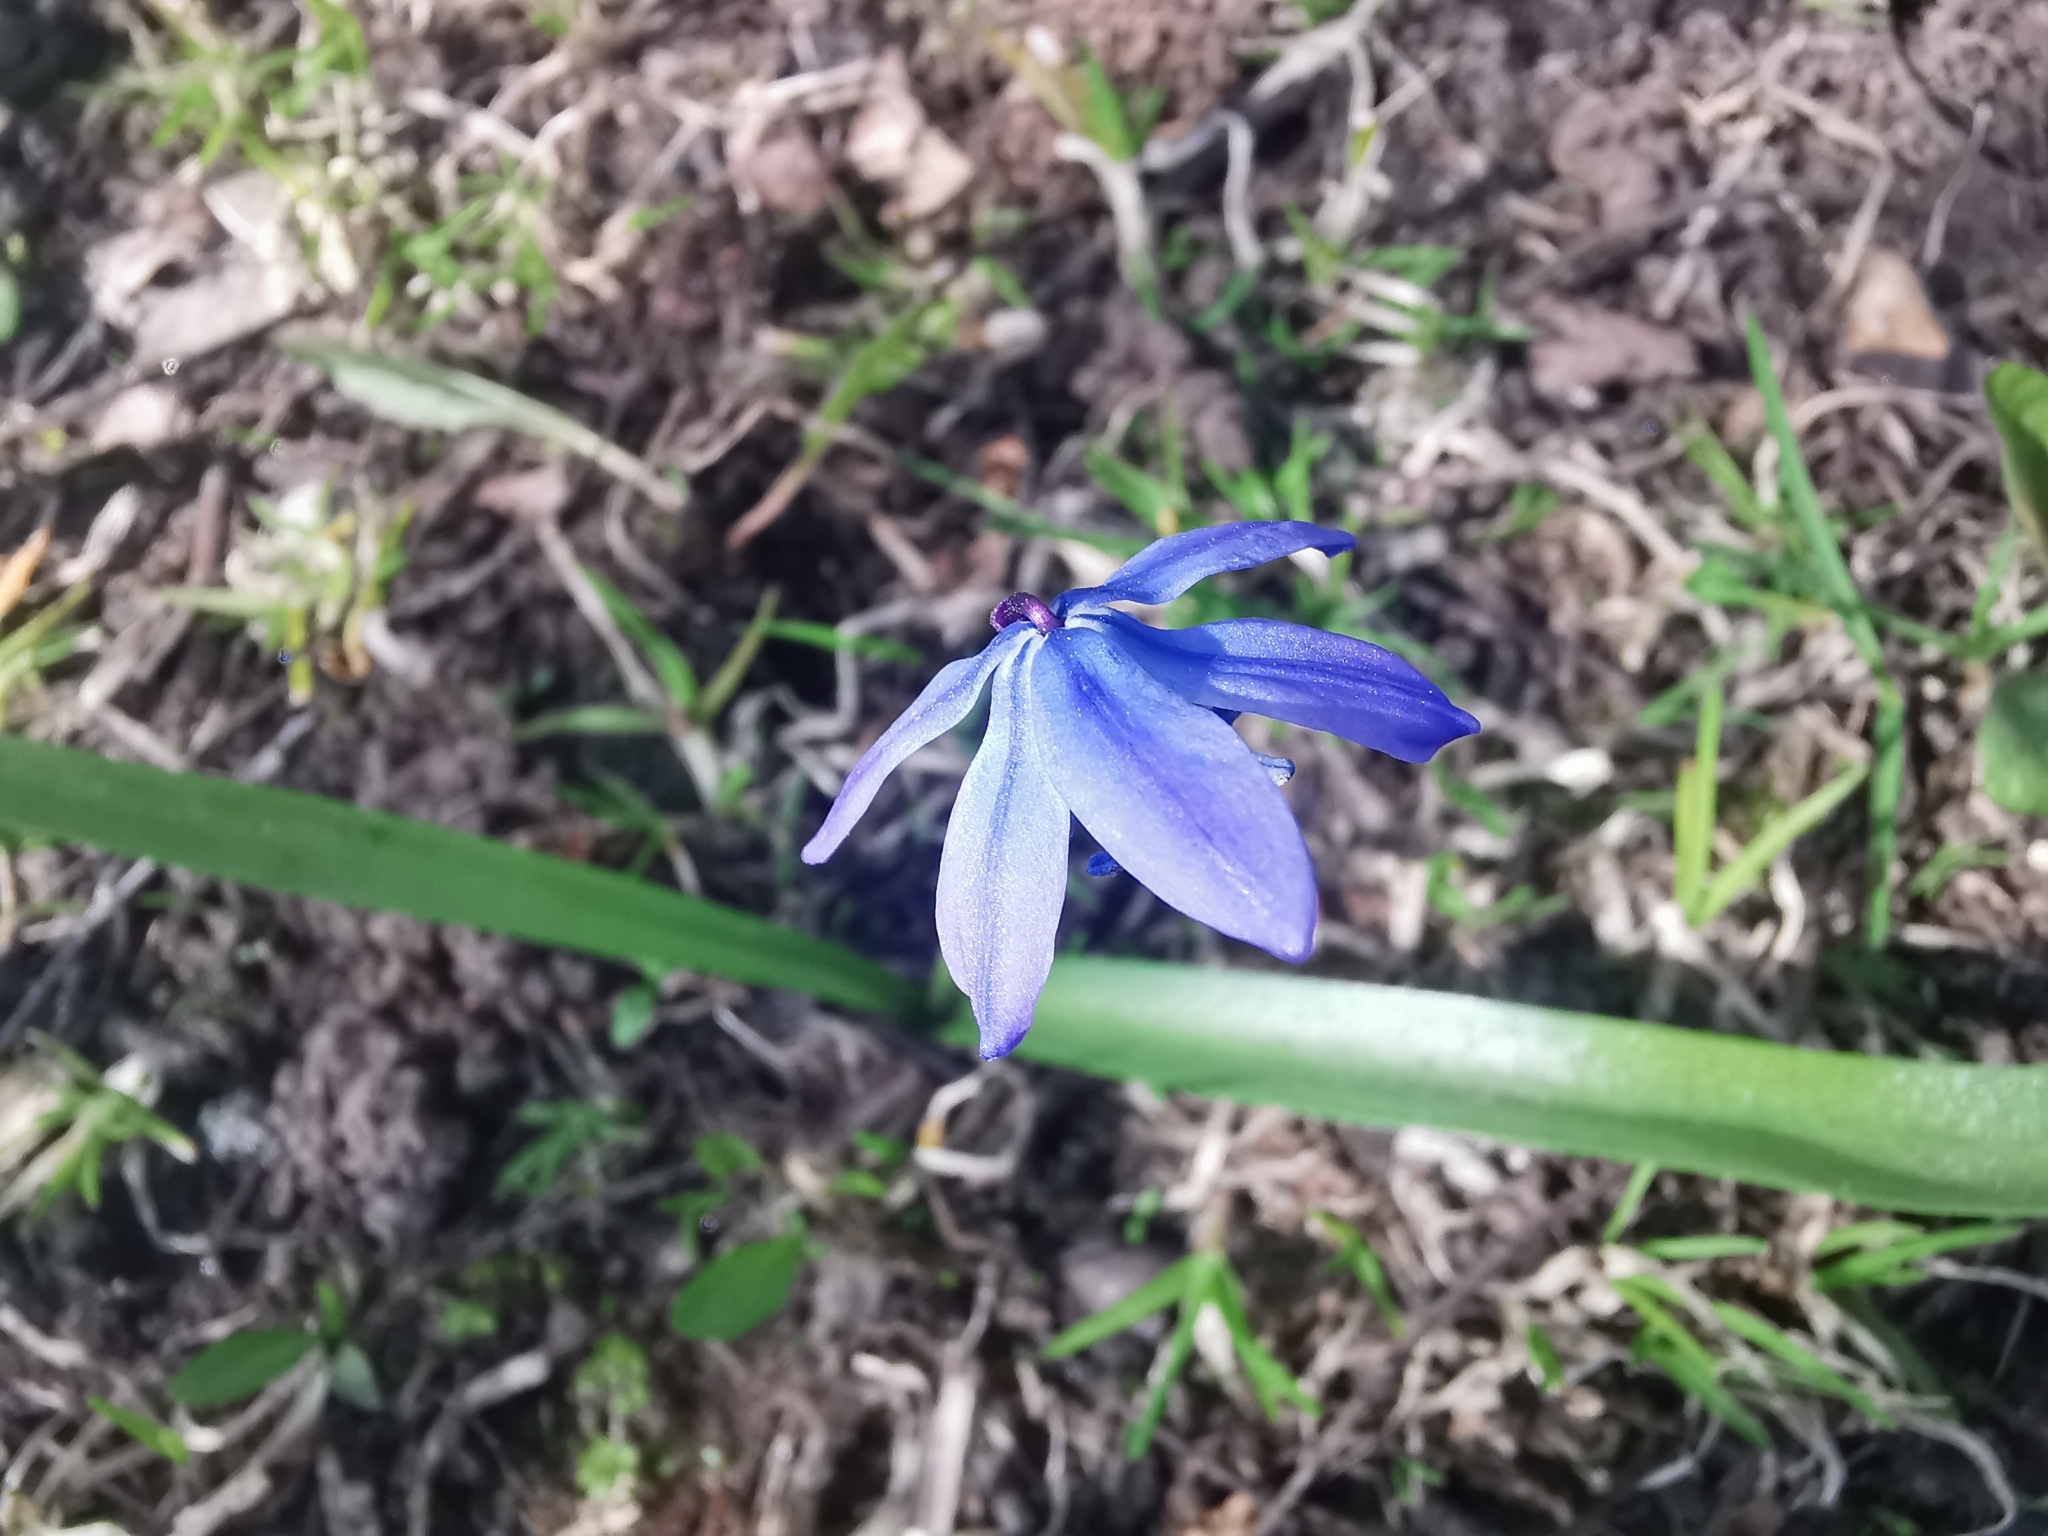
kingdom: Plantae
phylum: Tracheophyta
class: Liliopsida
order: Asparagales
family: Asparagaceae
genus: Scilla
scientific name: Scilla siberica
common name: Siberian squill
